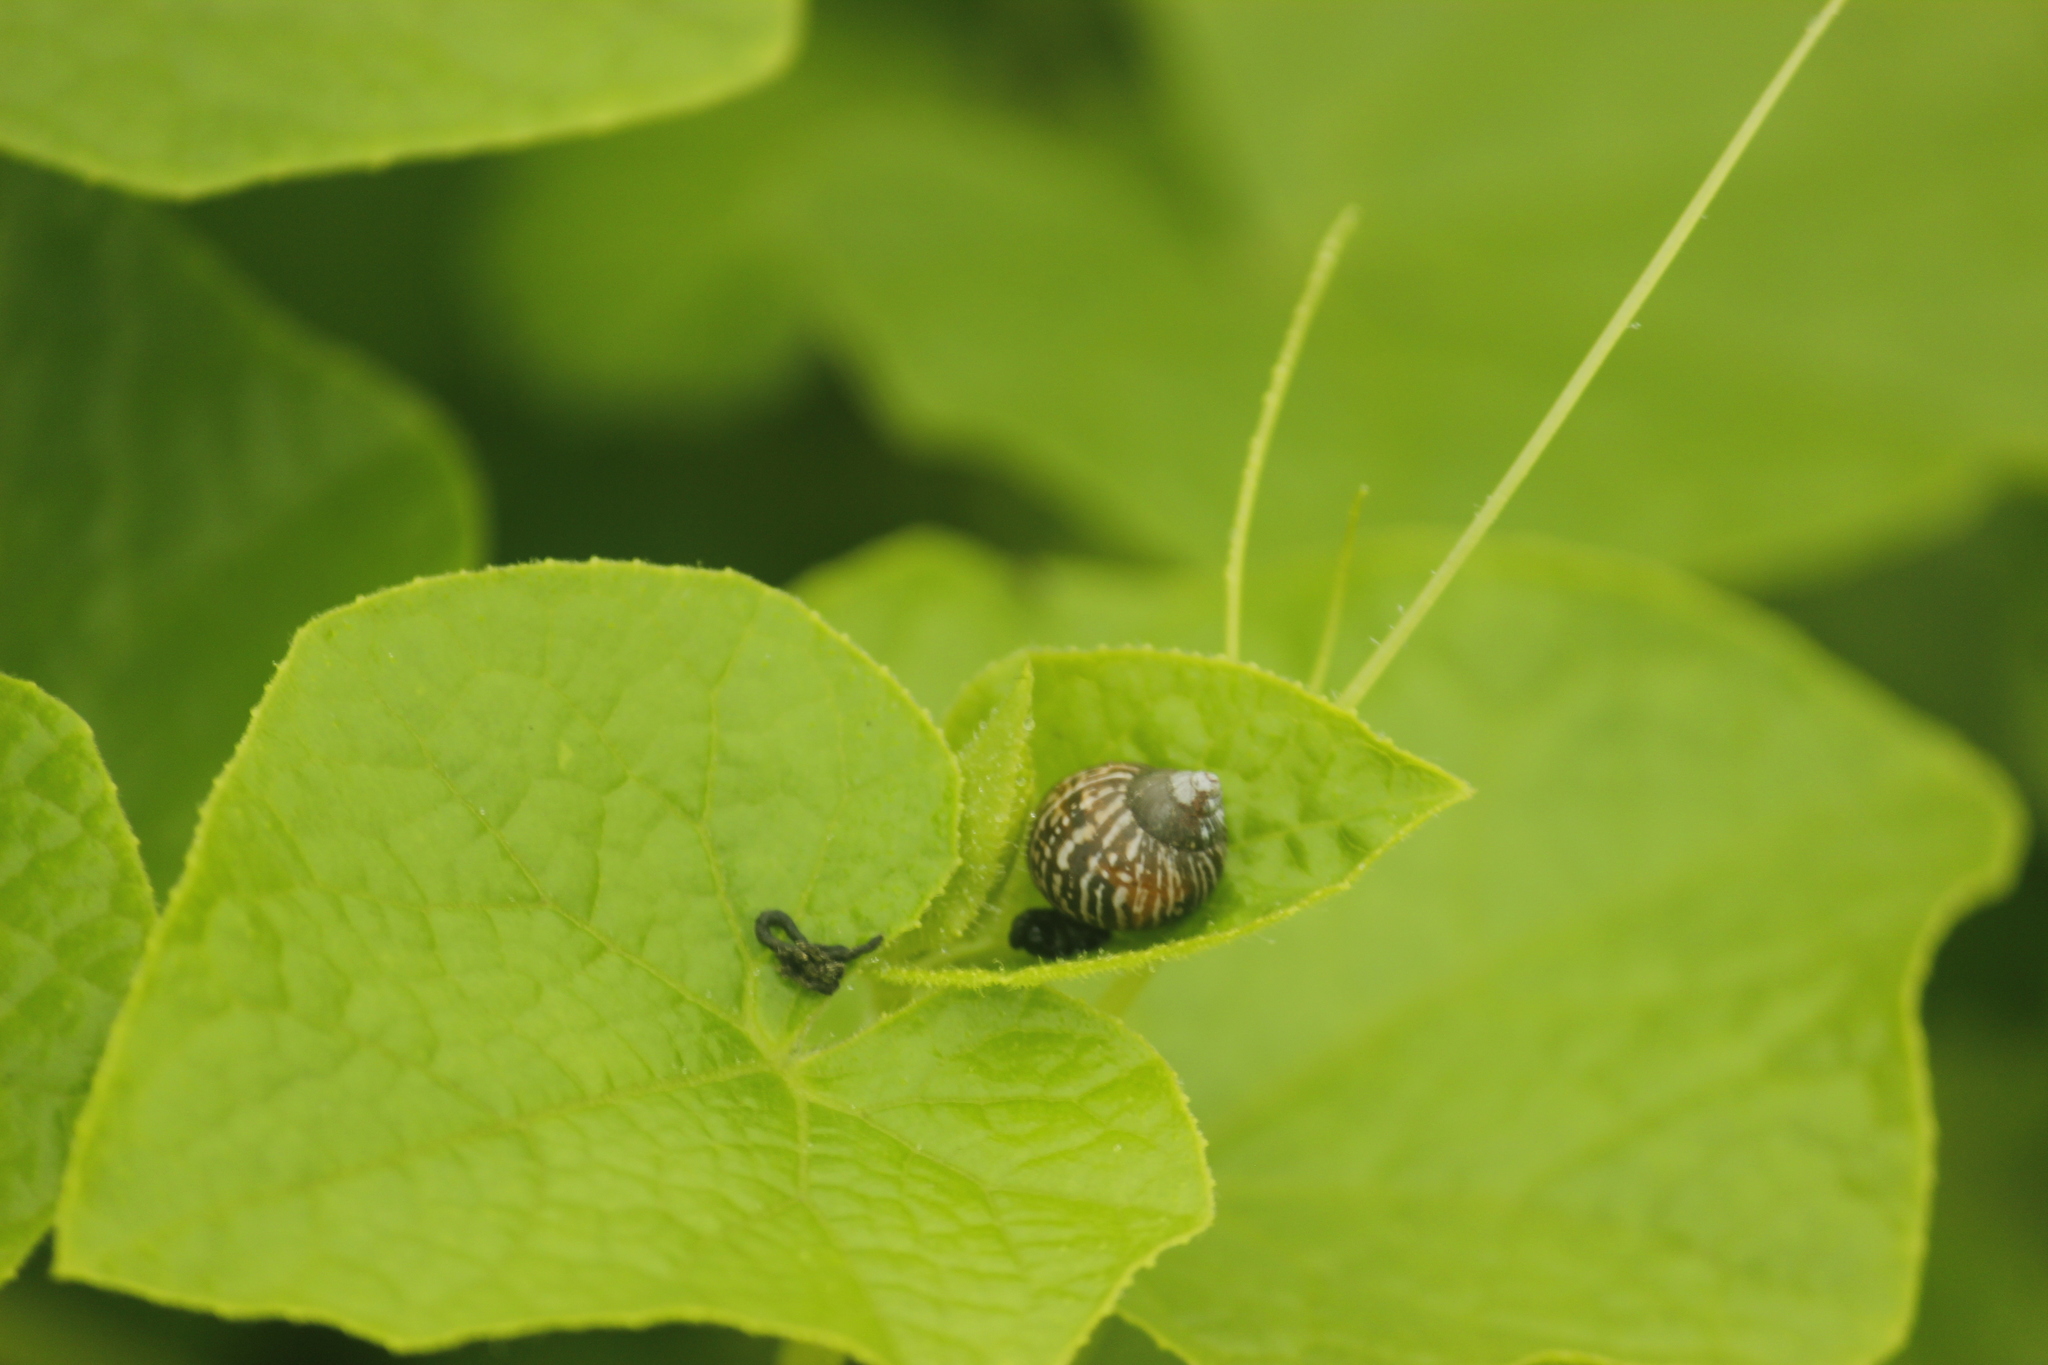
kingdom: Animalia
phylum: Mollusca
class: Gastropoda
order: Stylommatophora
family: Bulimulidae
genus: Bostryx
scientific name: Bostryx conspersus
